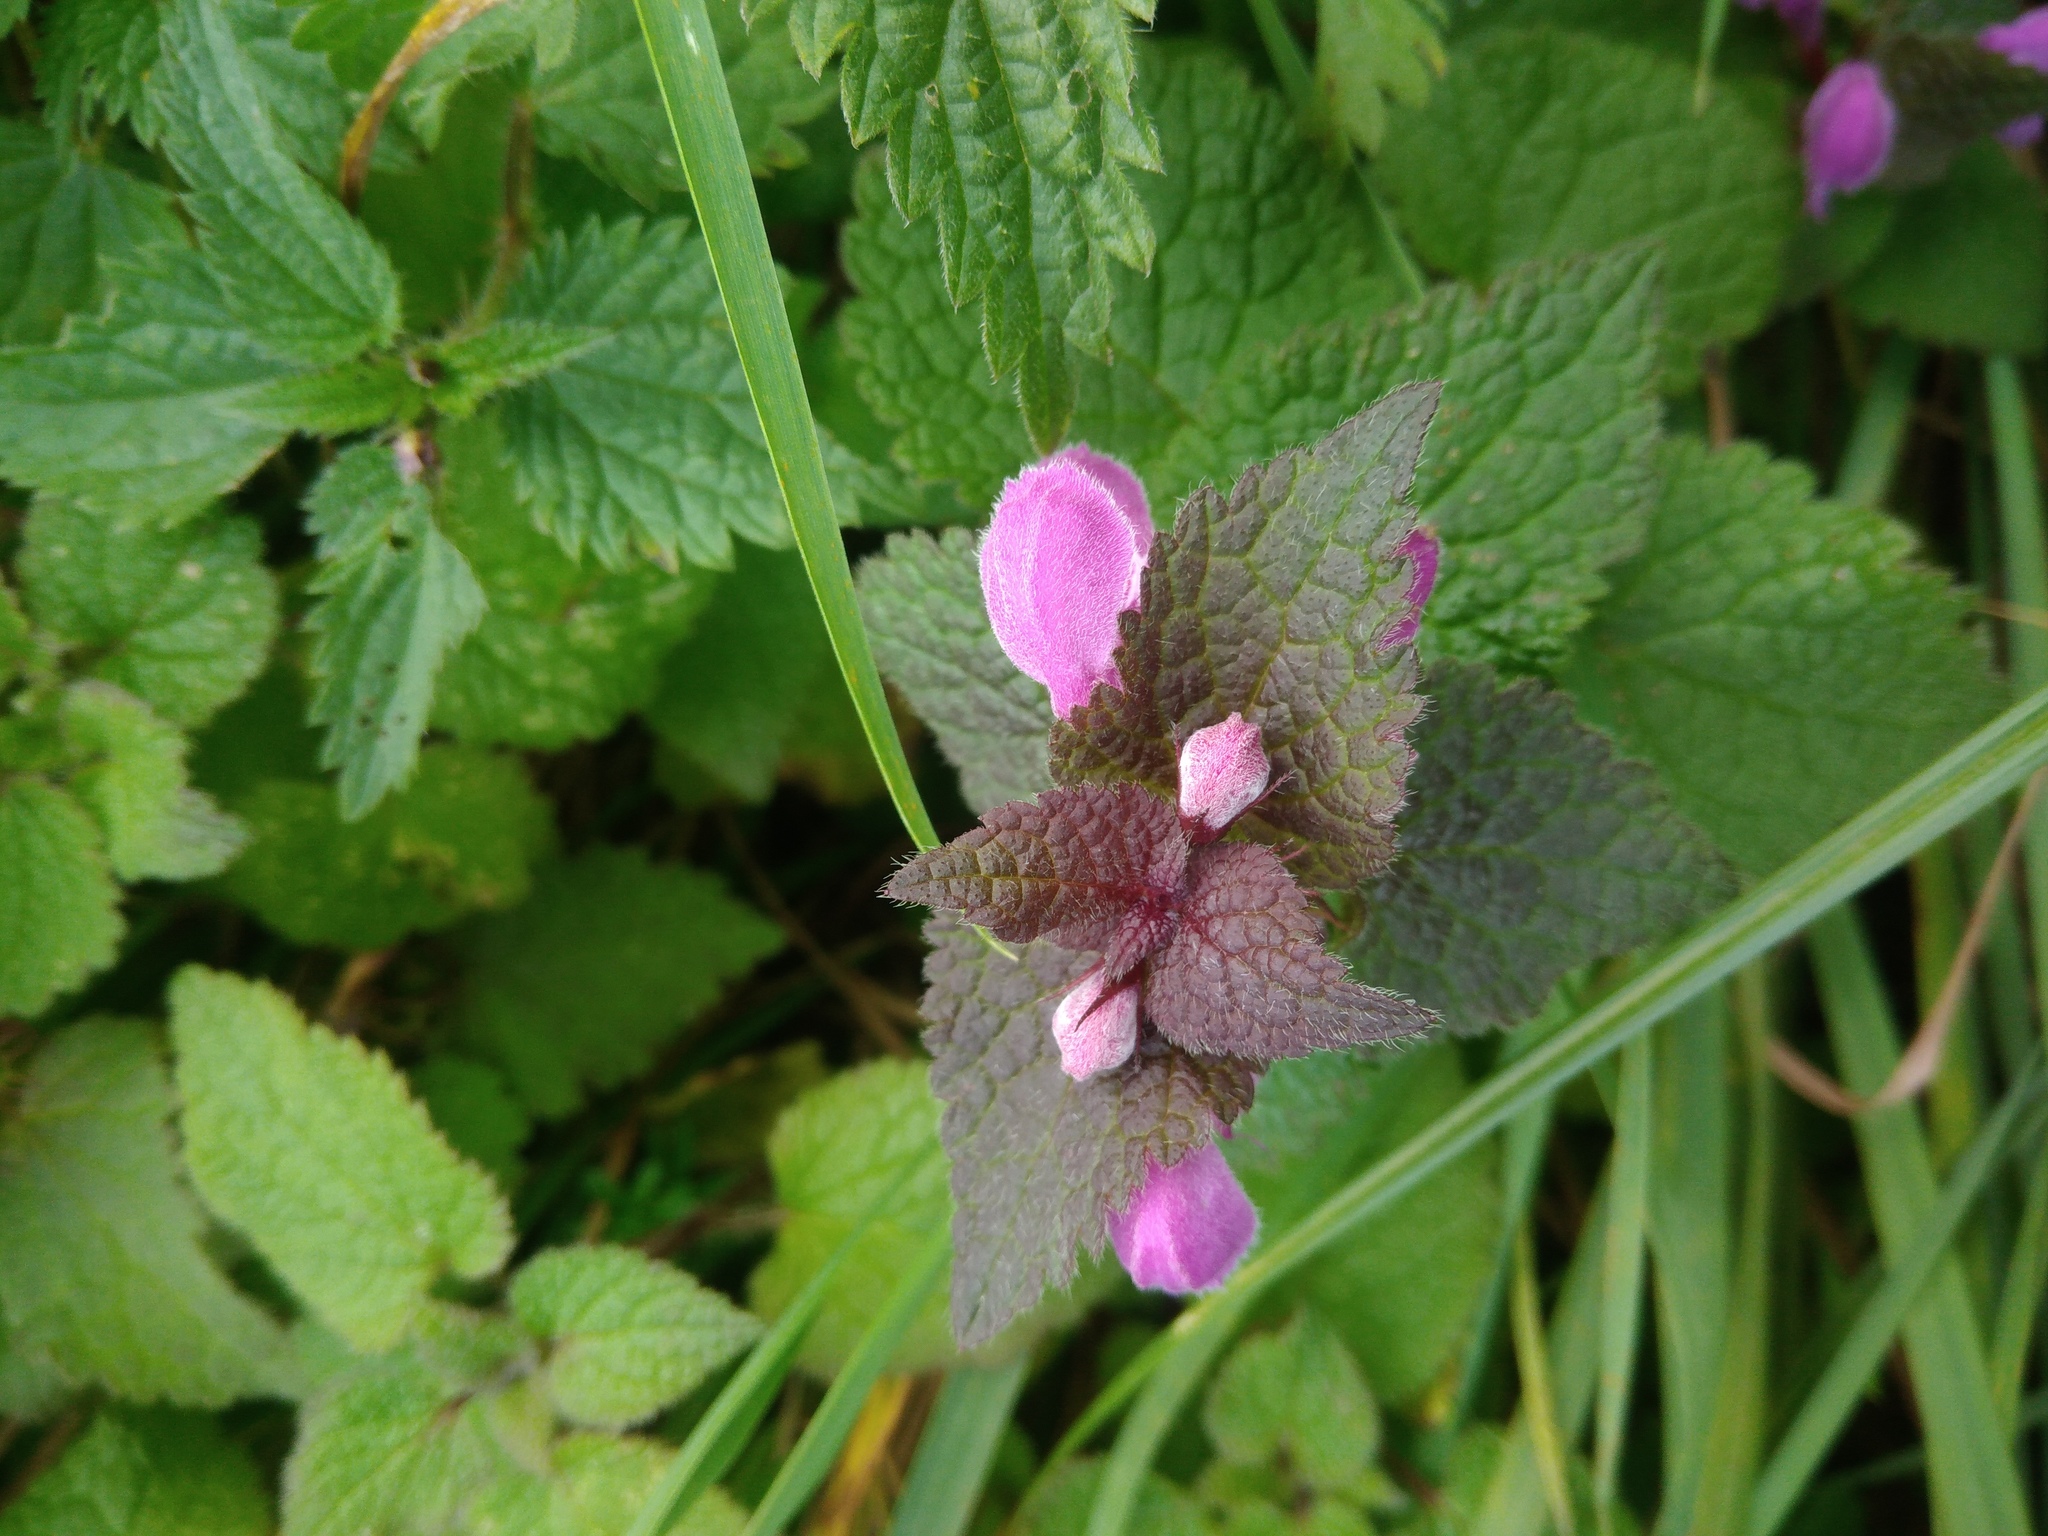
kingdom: Plantae
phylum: Tracheophyta
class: Magnoliopsida
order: Lamiales
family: Lamiaceae
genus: Lamium
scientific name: Lamium purpureum
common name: Red dead-nettle
